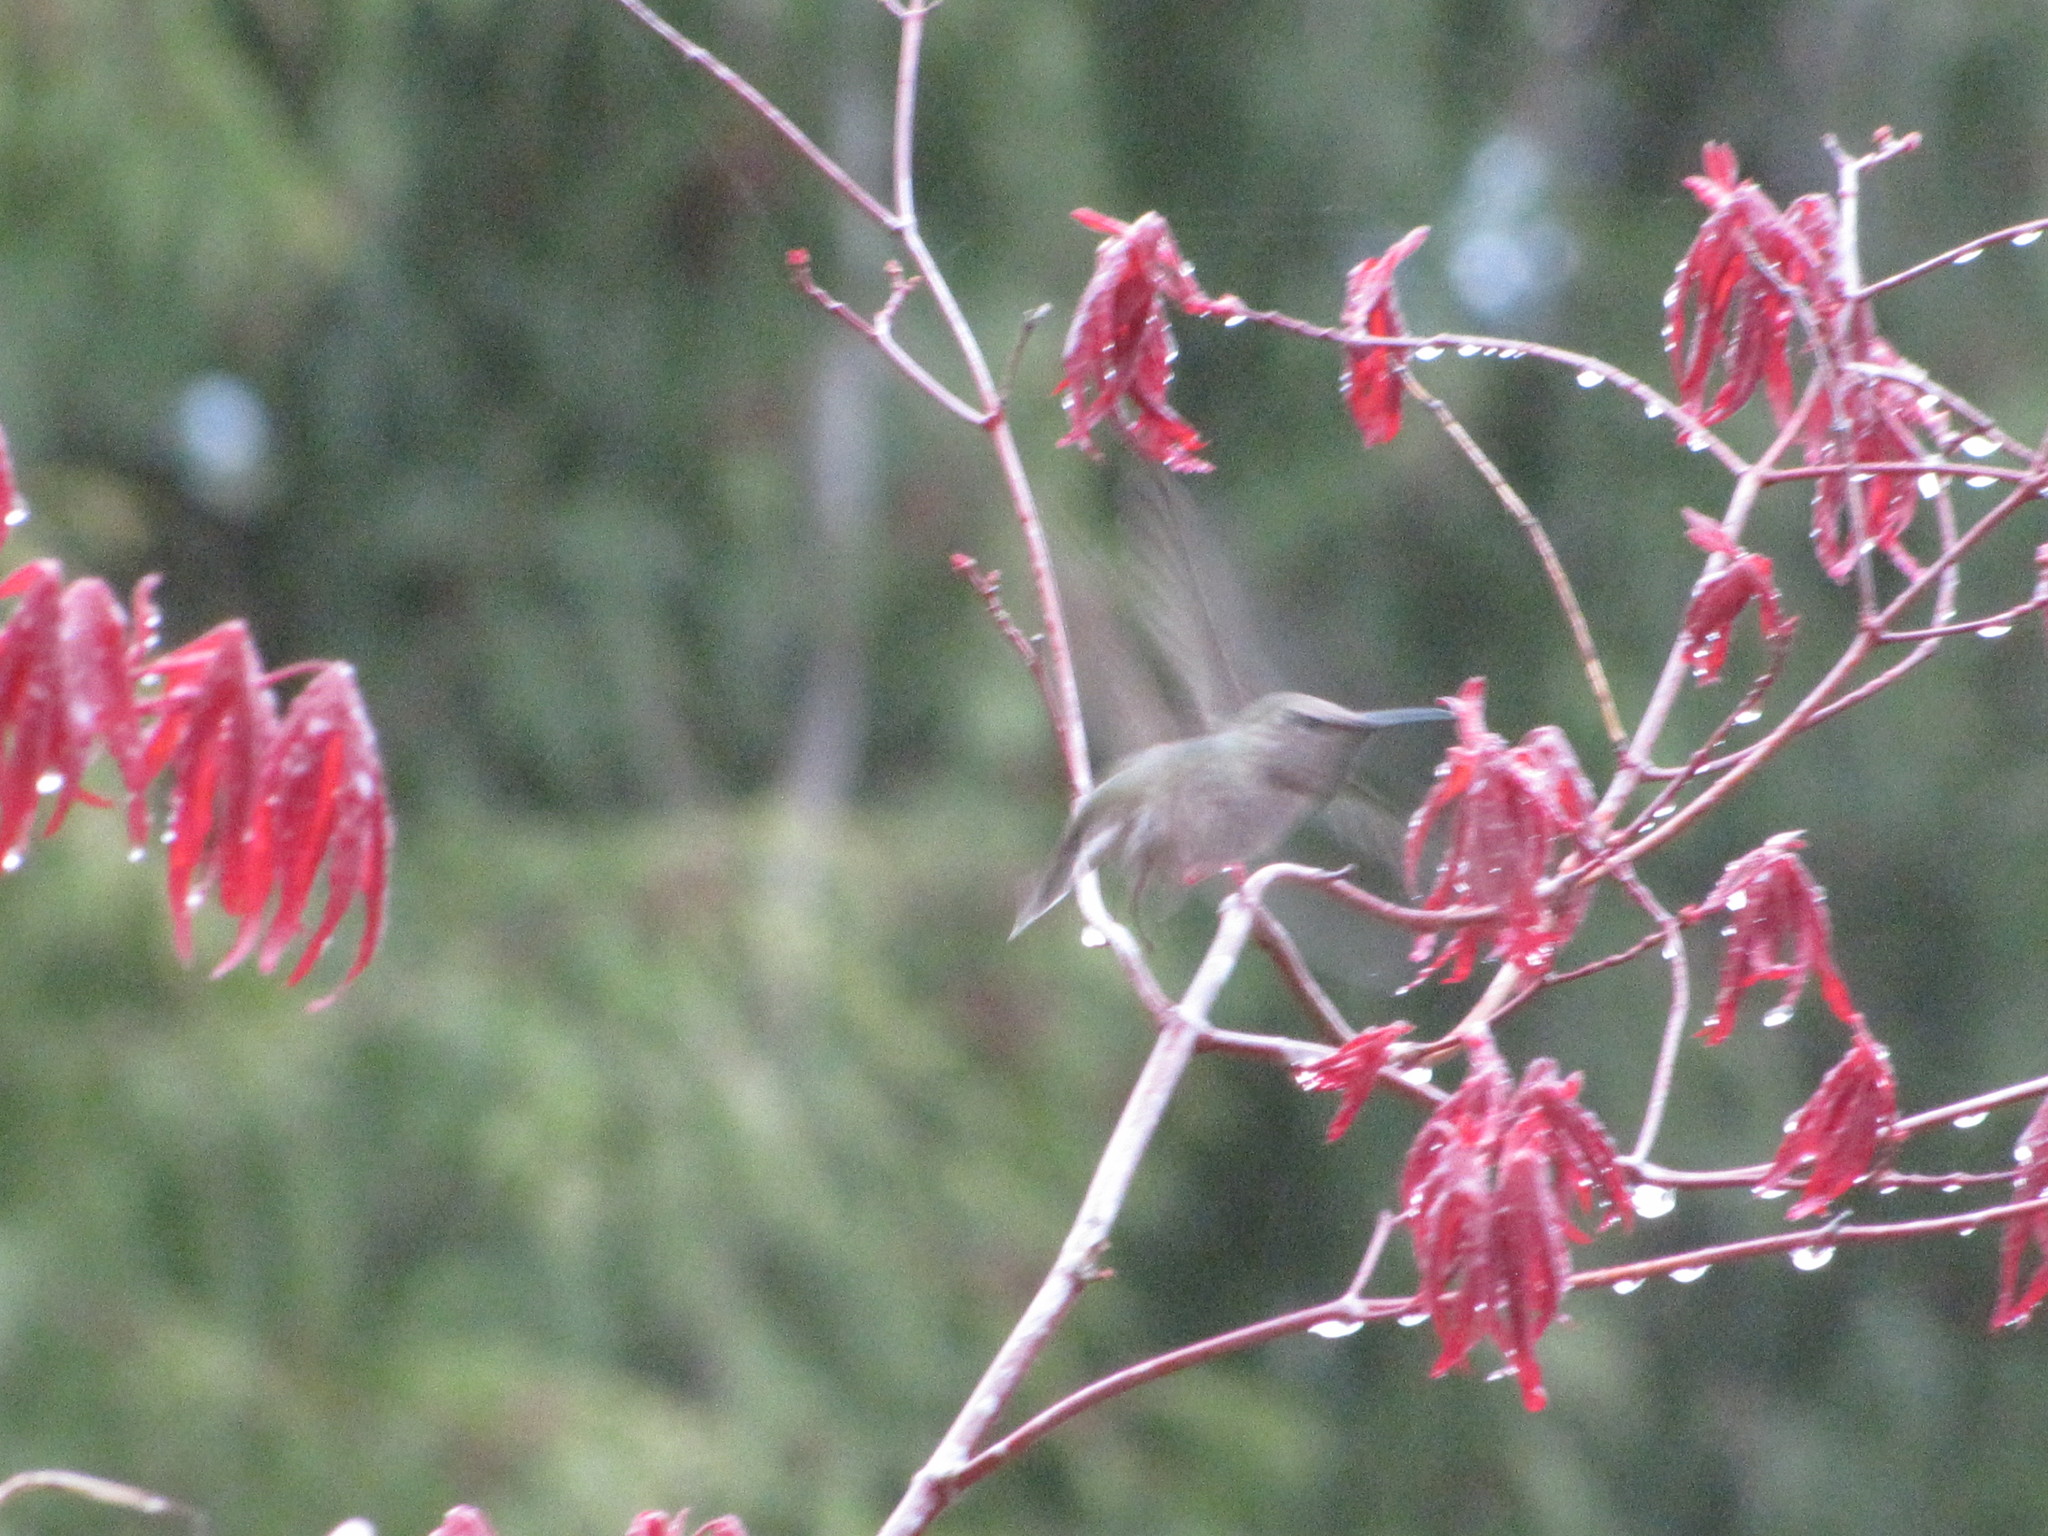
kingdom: Animalia
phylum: Chordata
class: Aves
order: Apodiformes
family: Trochilidae
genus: Calypte
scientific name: Calypte anna
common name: Anna's hummingbird
